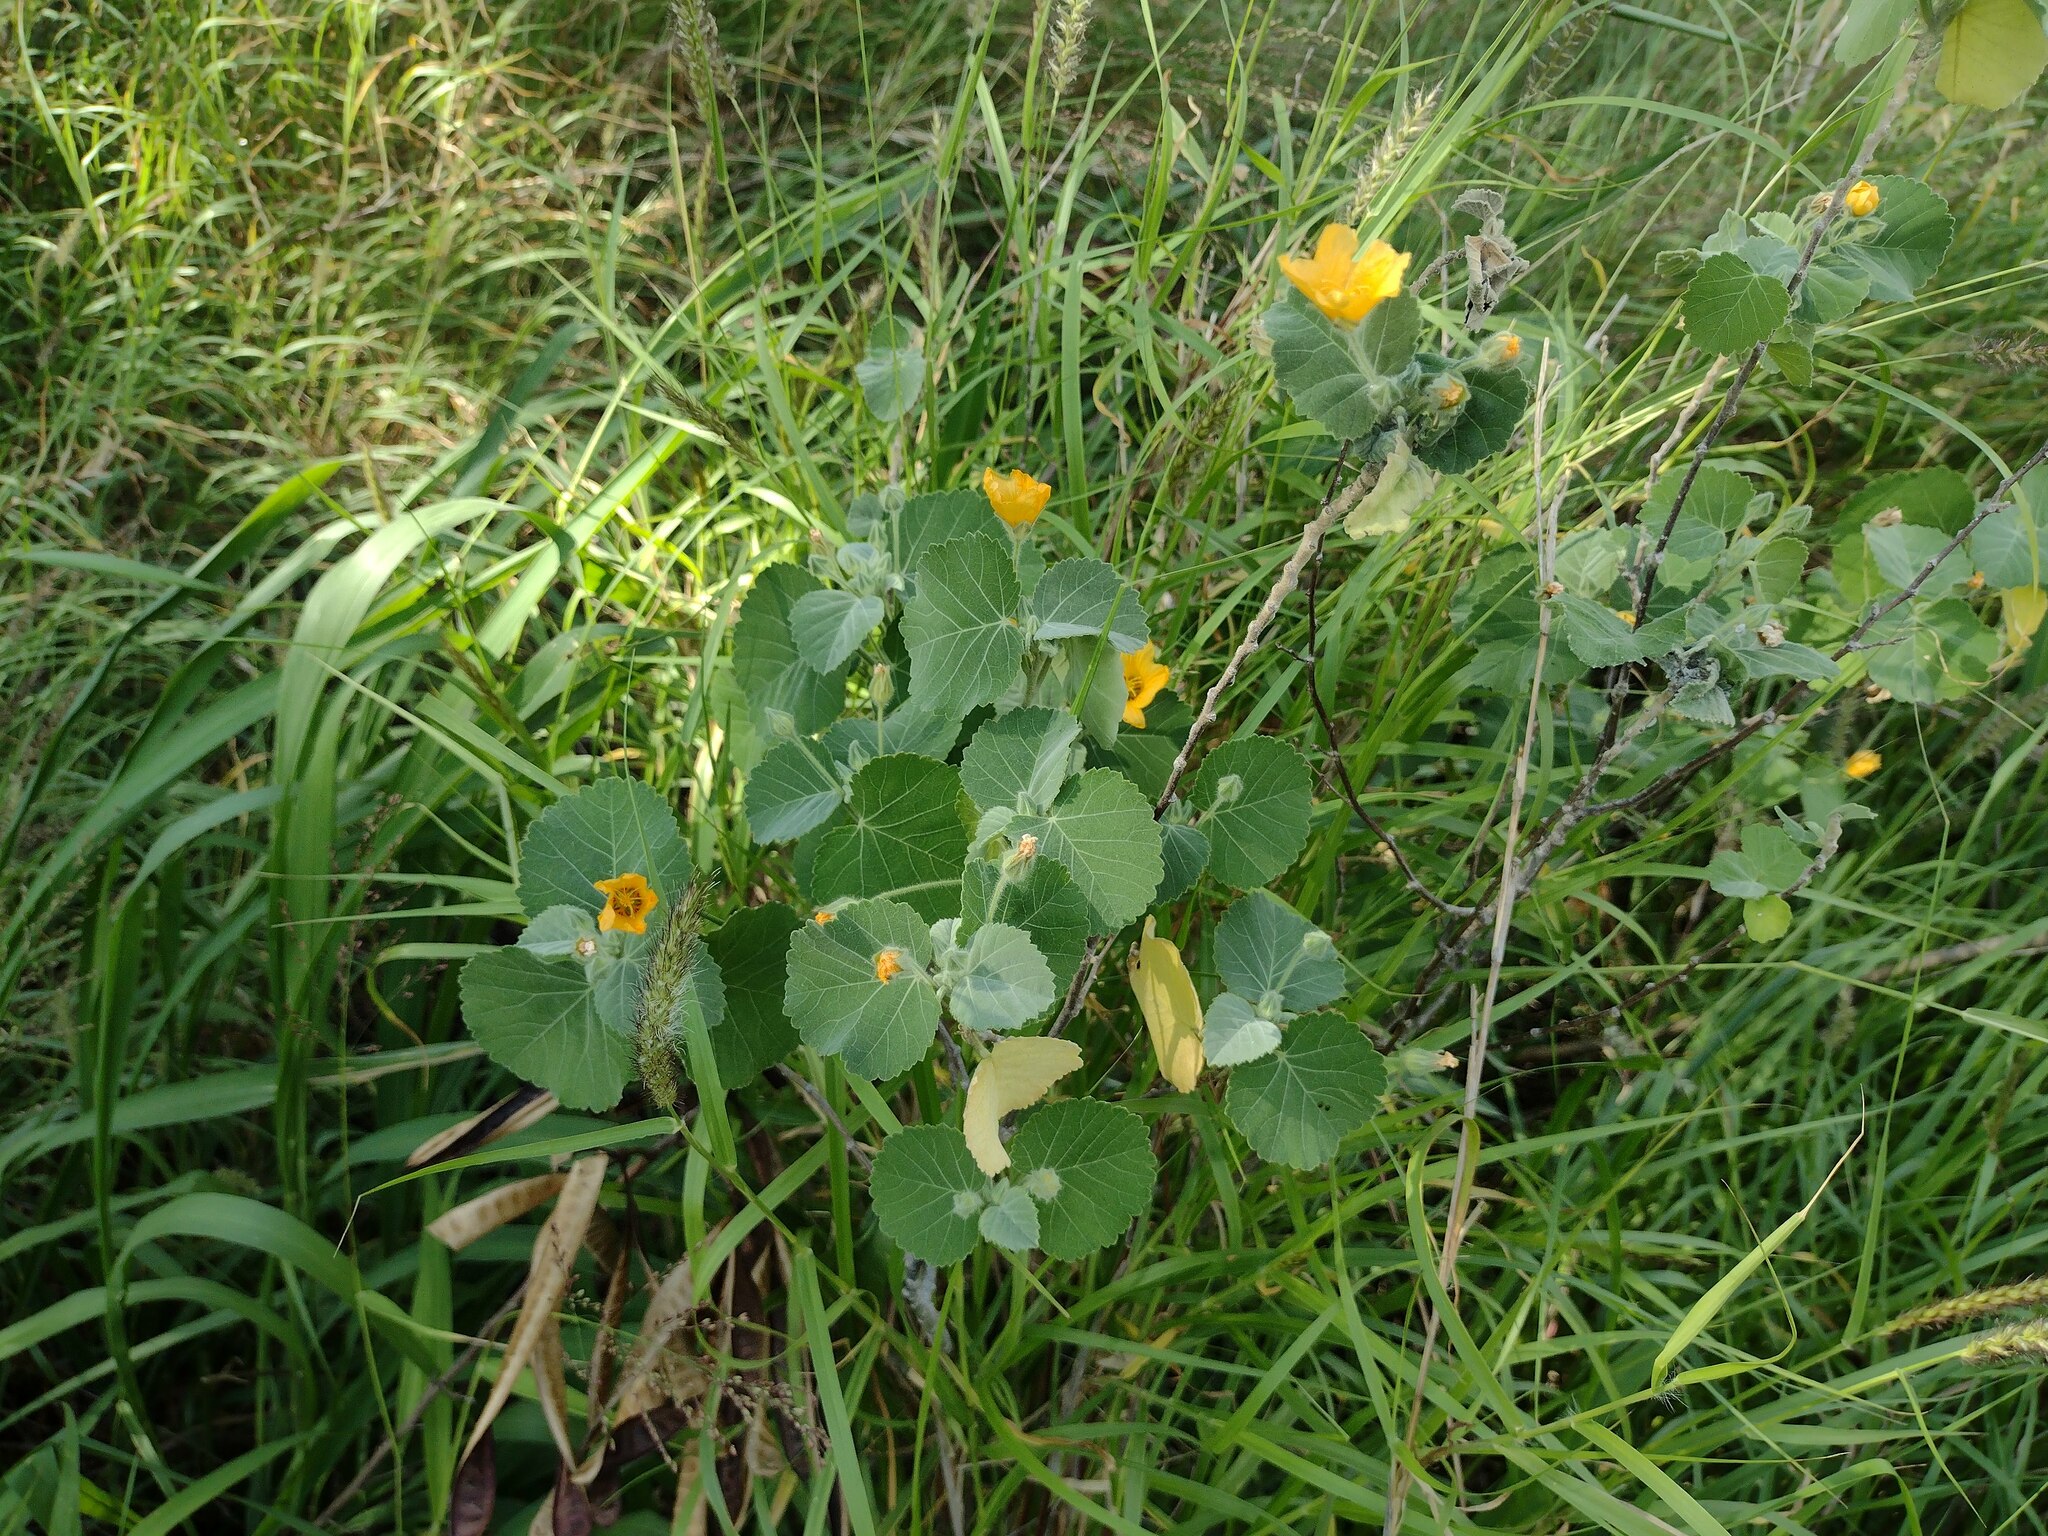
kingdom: Plantae
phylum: Tracheophyta
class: Magnoliopsida
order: Malvales
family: Malvaceae
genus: Sida
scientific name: Sida fallax
